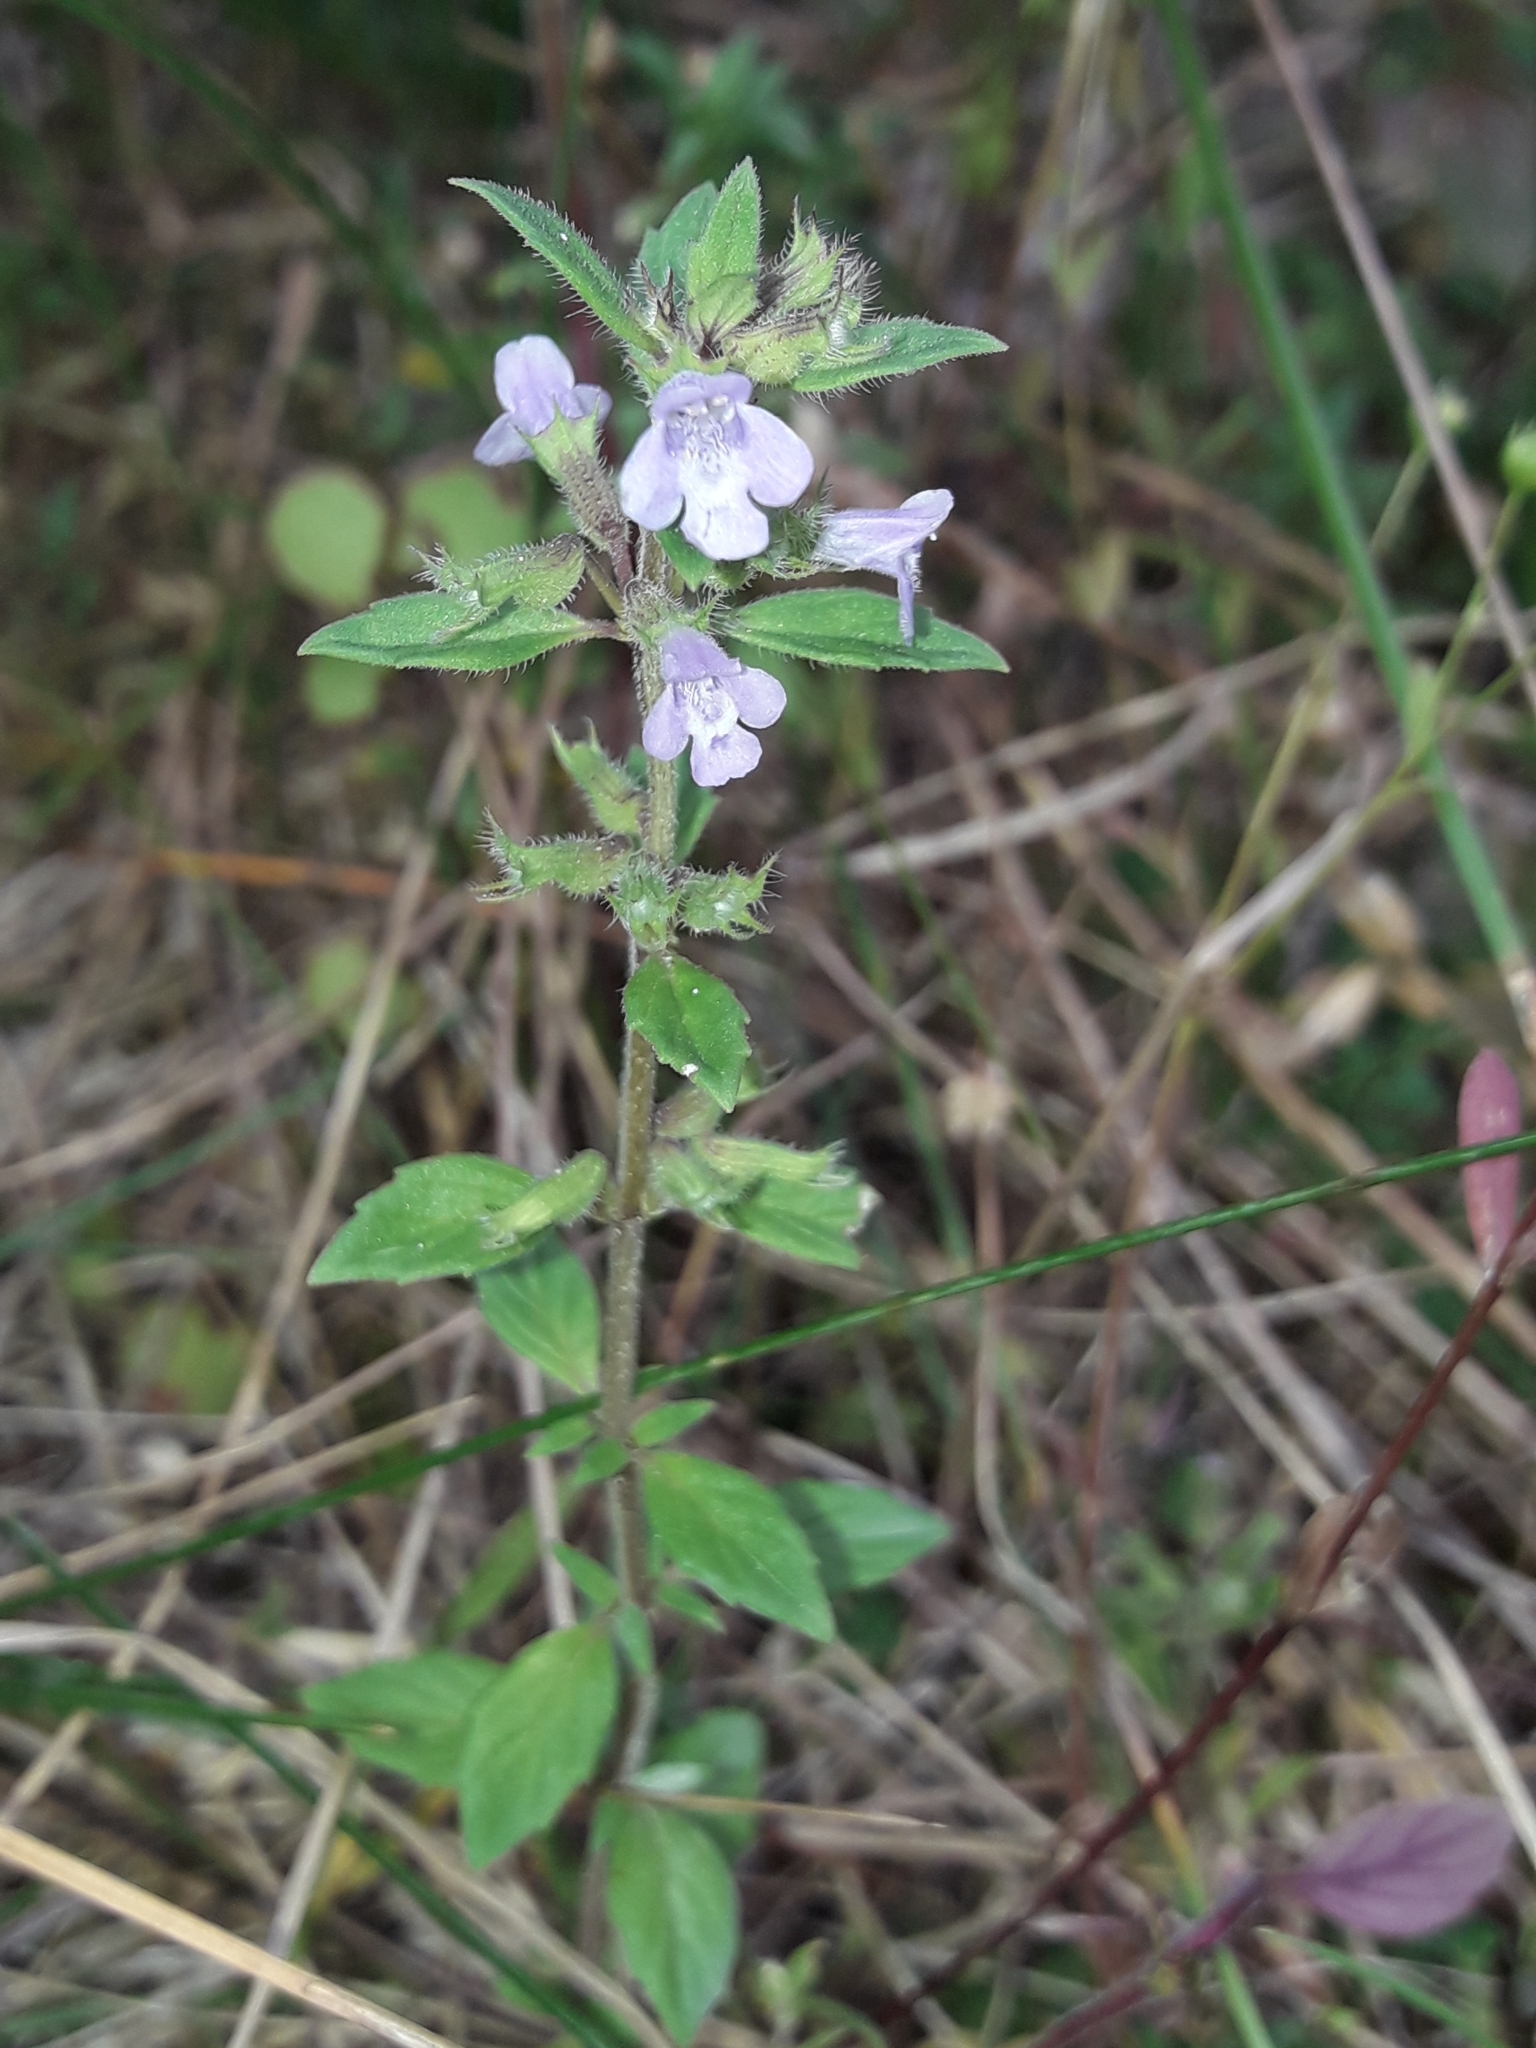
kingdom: Plantae
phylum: Tracheophyta
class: Magnoliopsida
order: Lamiales
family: Lamiaceae
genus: Clinopodium
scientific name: Clinopodium acinos
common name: Basil thyme
